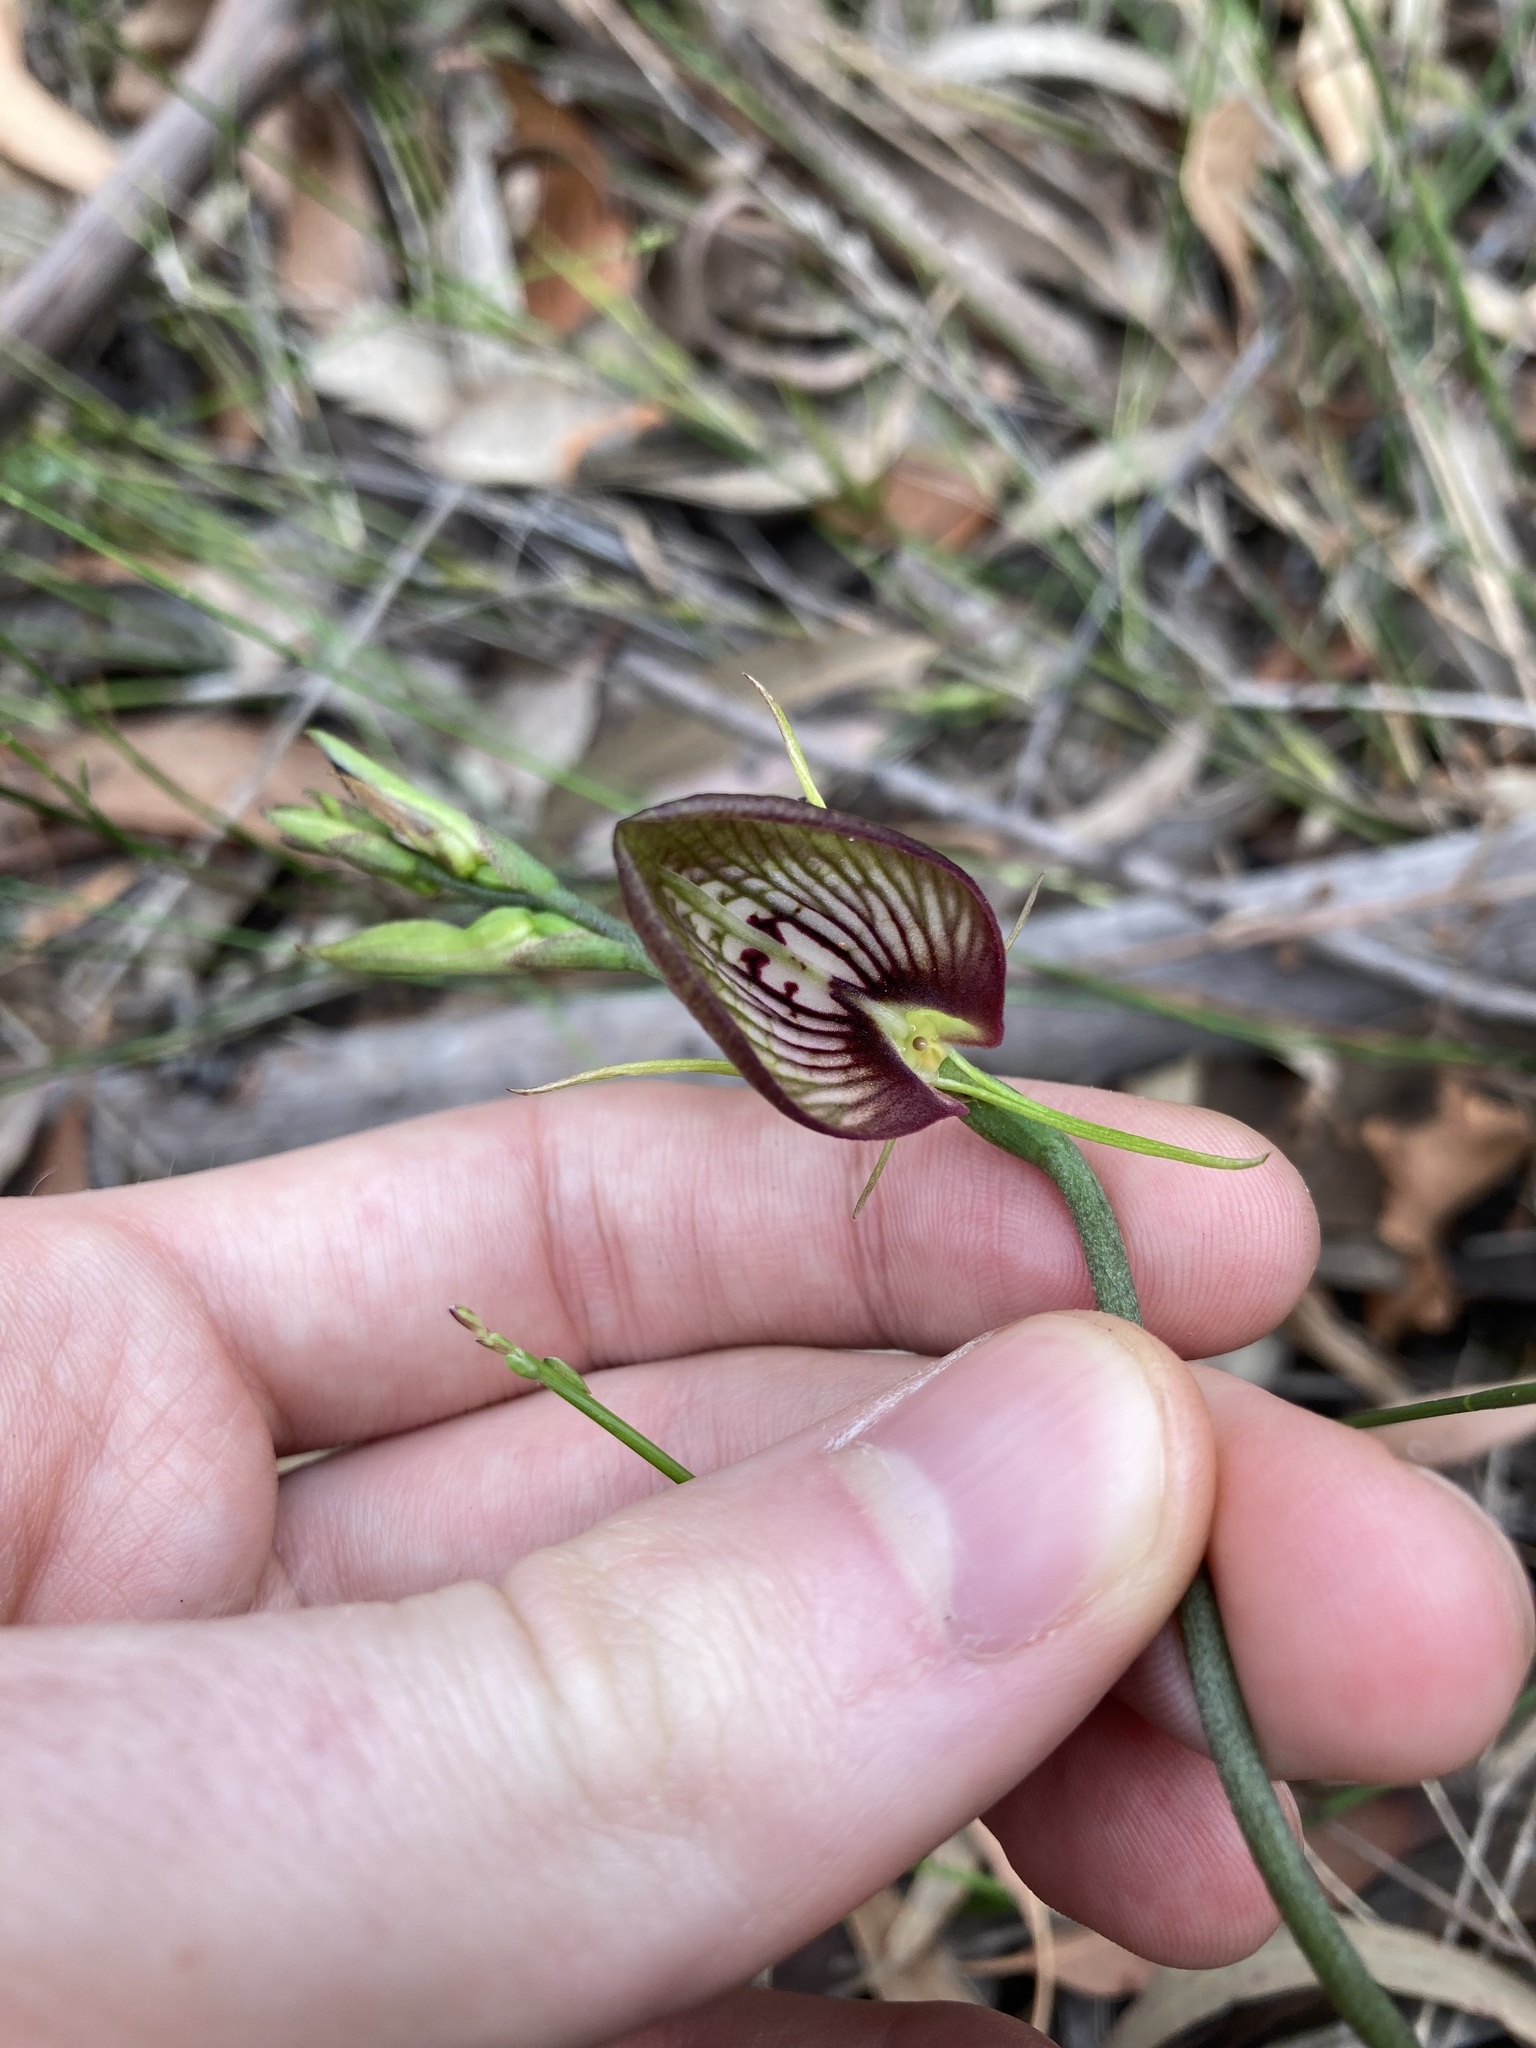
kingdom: Plantae
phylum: Tracheophyta
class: Liliopsida
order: Asparagales
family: Orchidaceae
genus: Cryptostylis
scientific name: Cryptostylis erecta
